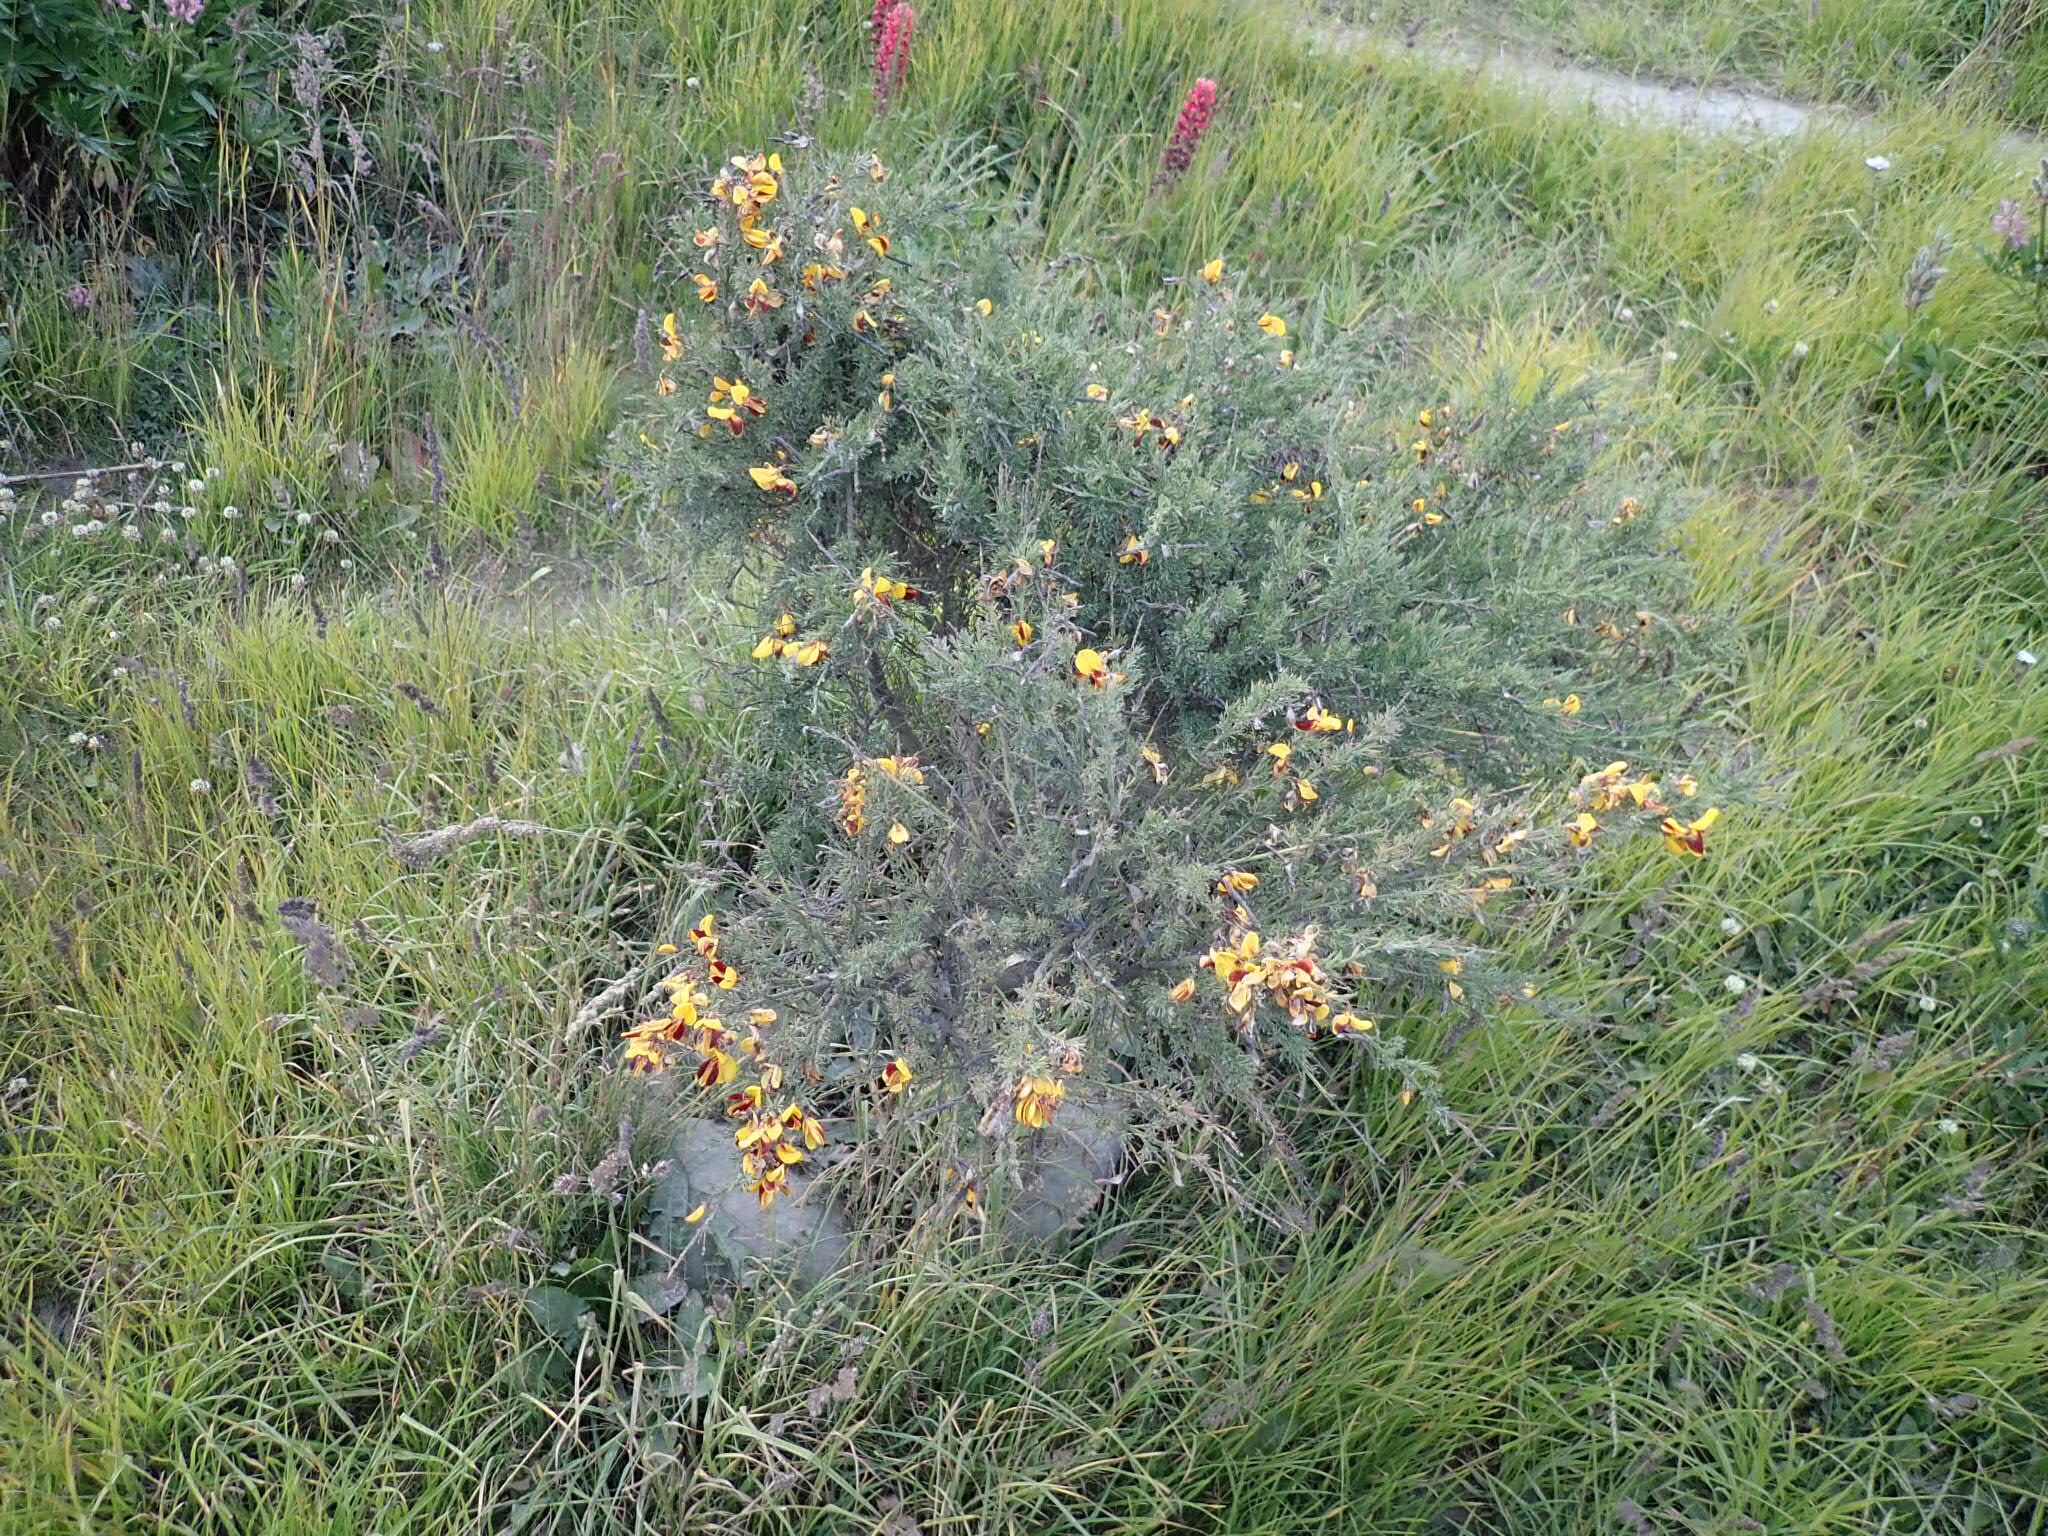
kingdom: Plantae
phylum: Tracheophyta
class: Magnoliopsida
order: Fabales
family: Fabaceae
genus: Cytisus
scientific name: Cytisus scoparius
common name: Scotch broom
